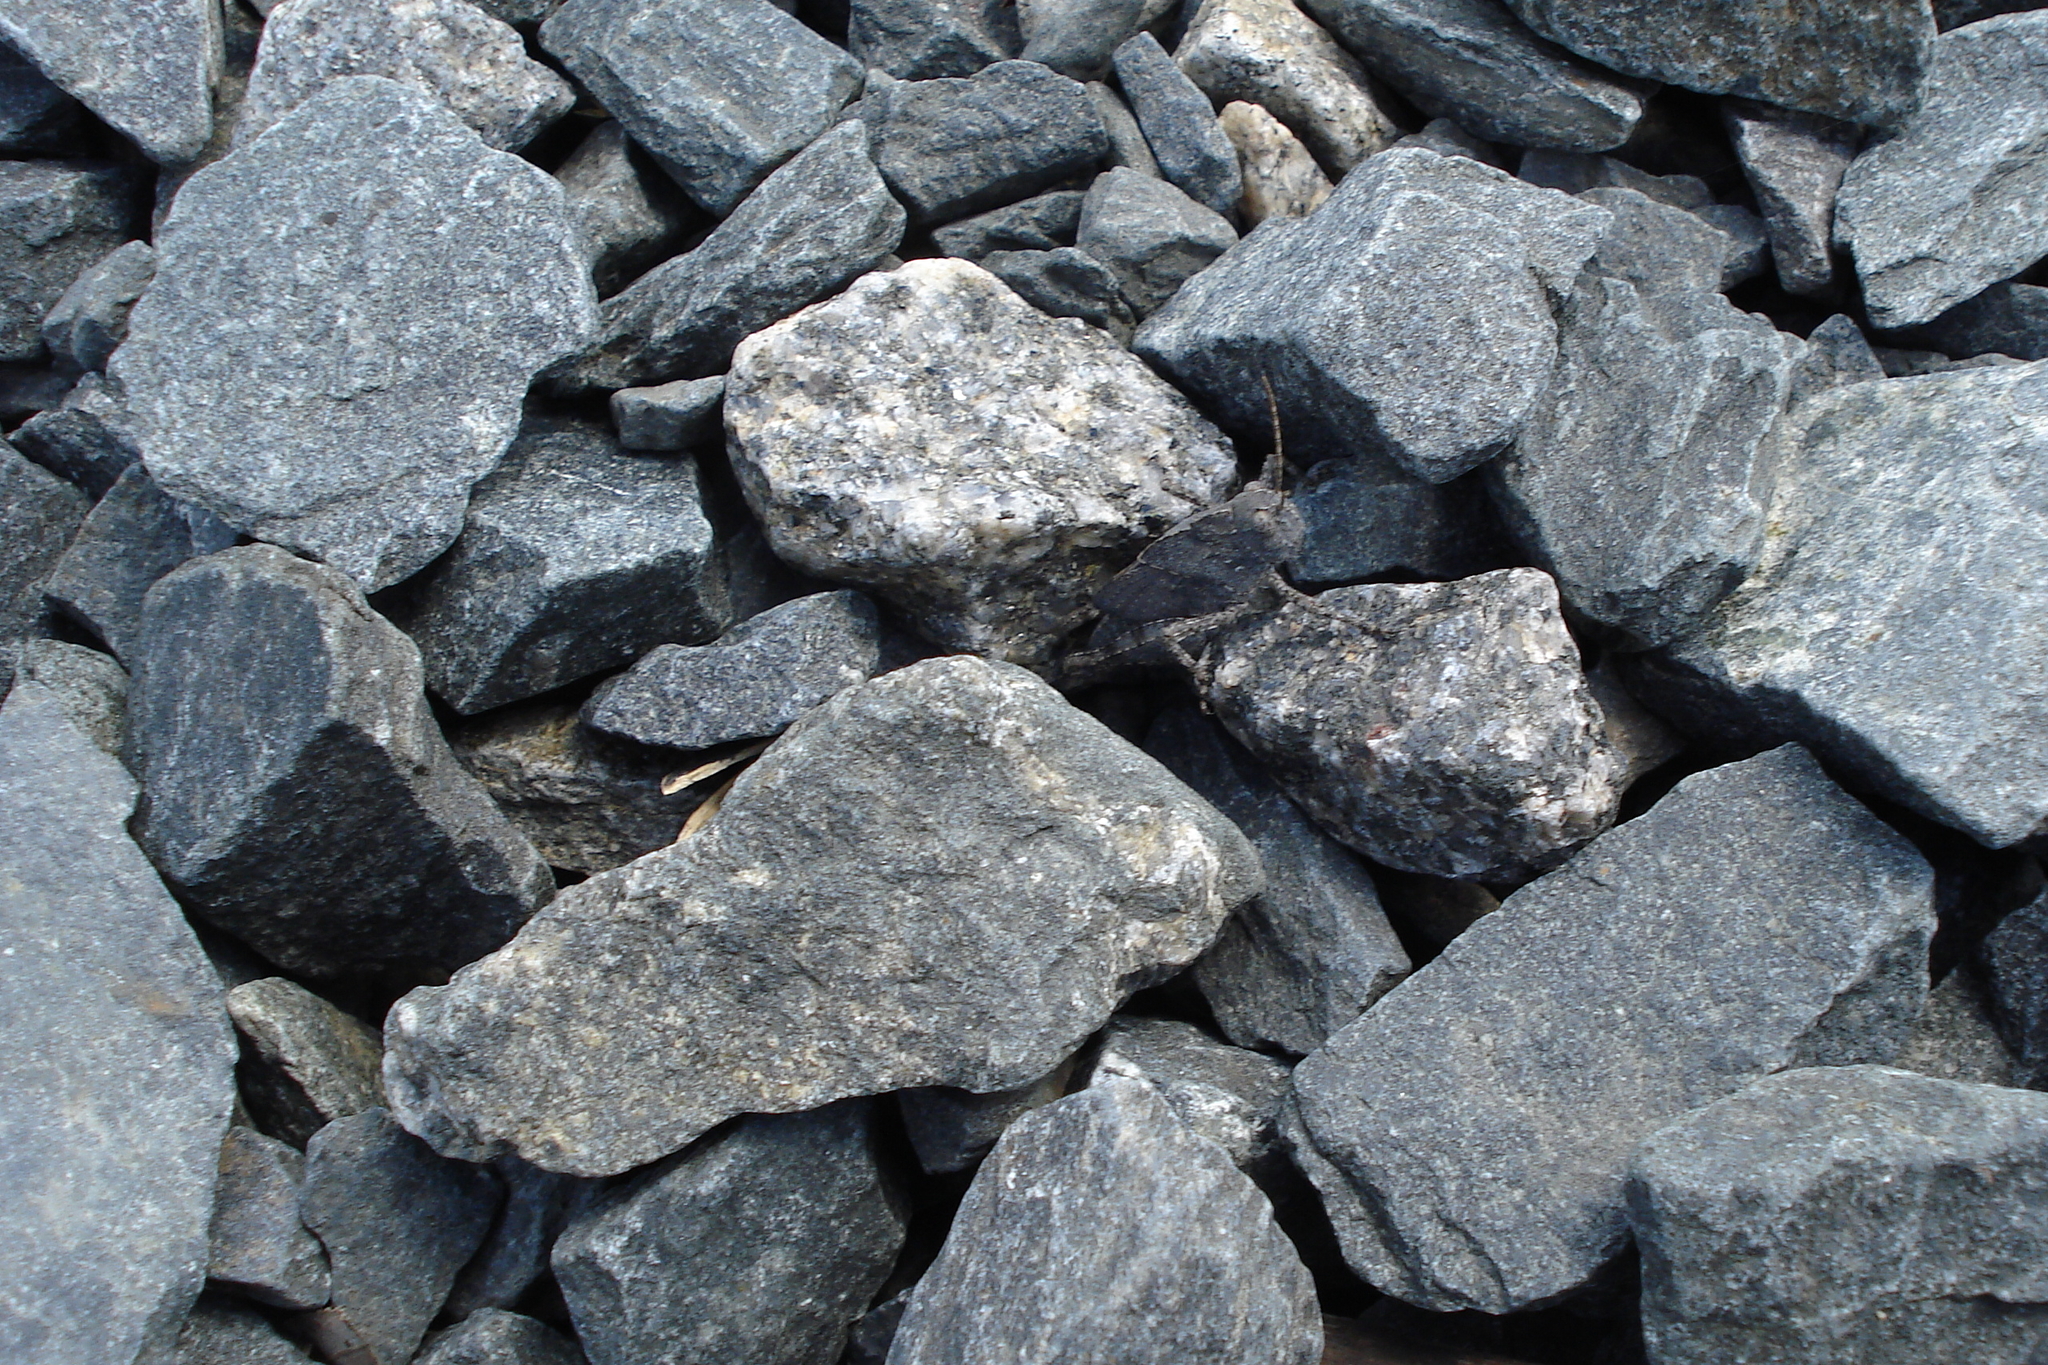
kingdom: Animalia
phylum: Arthropoda
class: Insecta
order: Orthoptera
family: Acrididae
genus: Dissosteira
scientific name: Dissosteira carolina
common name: Carolina grasshopper
